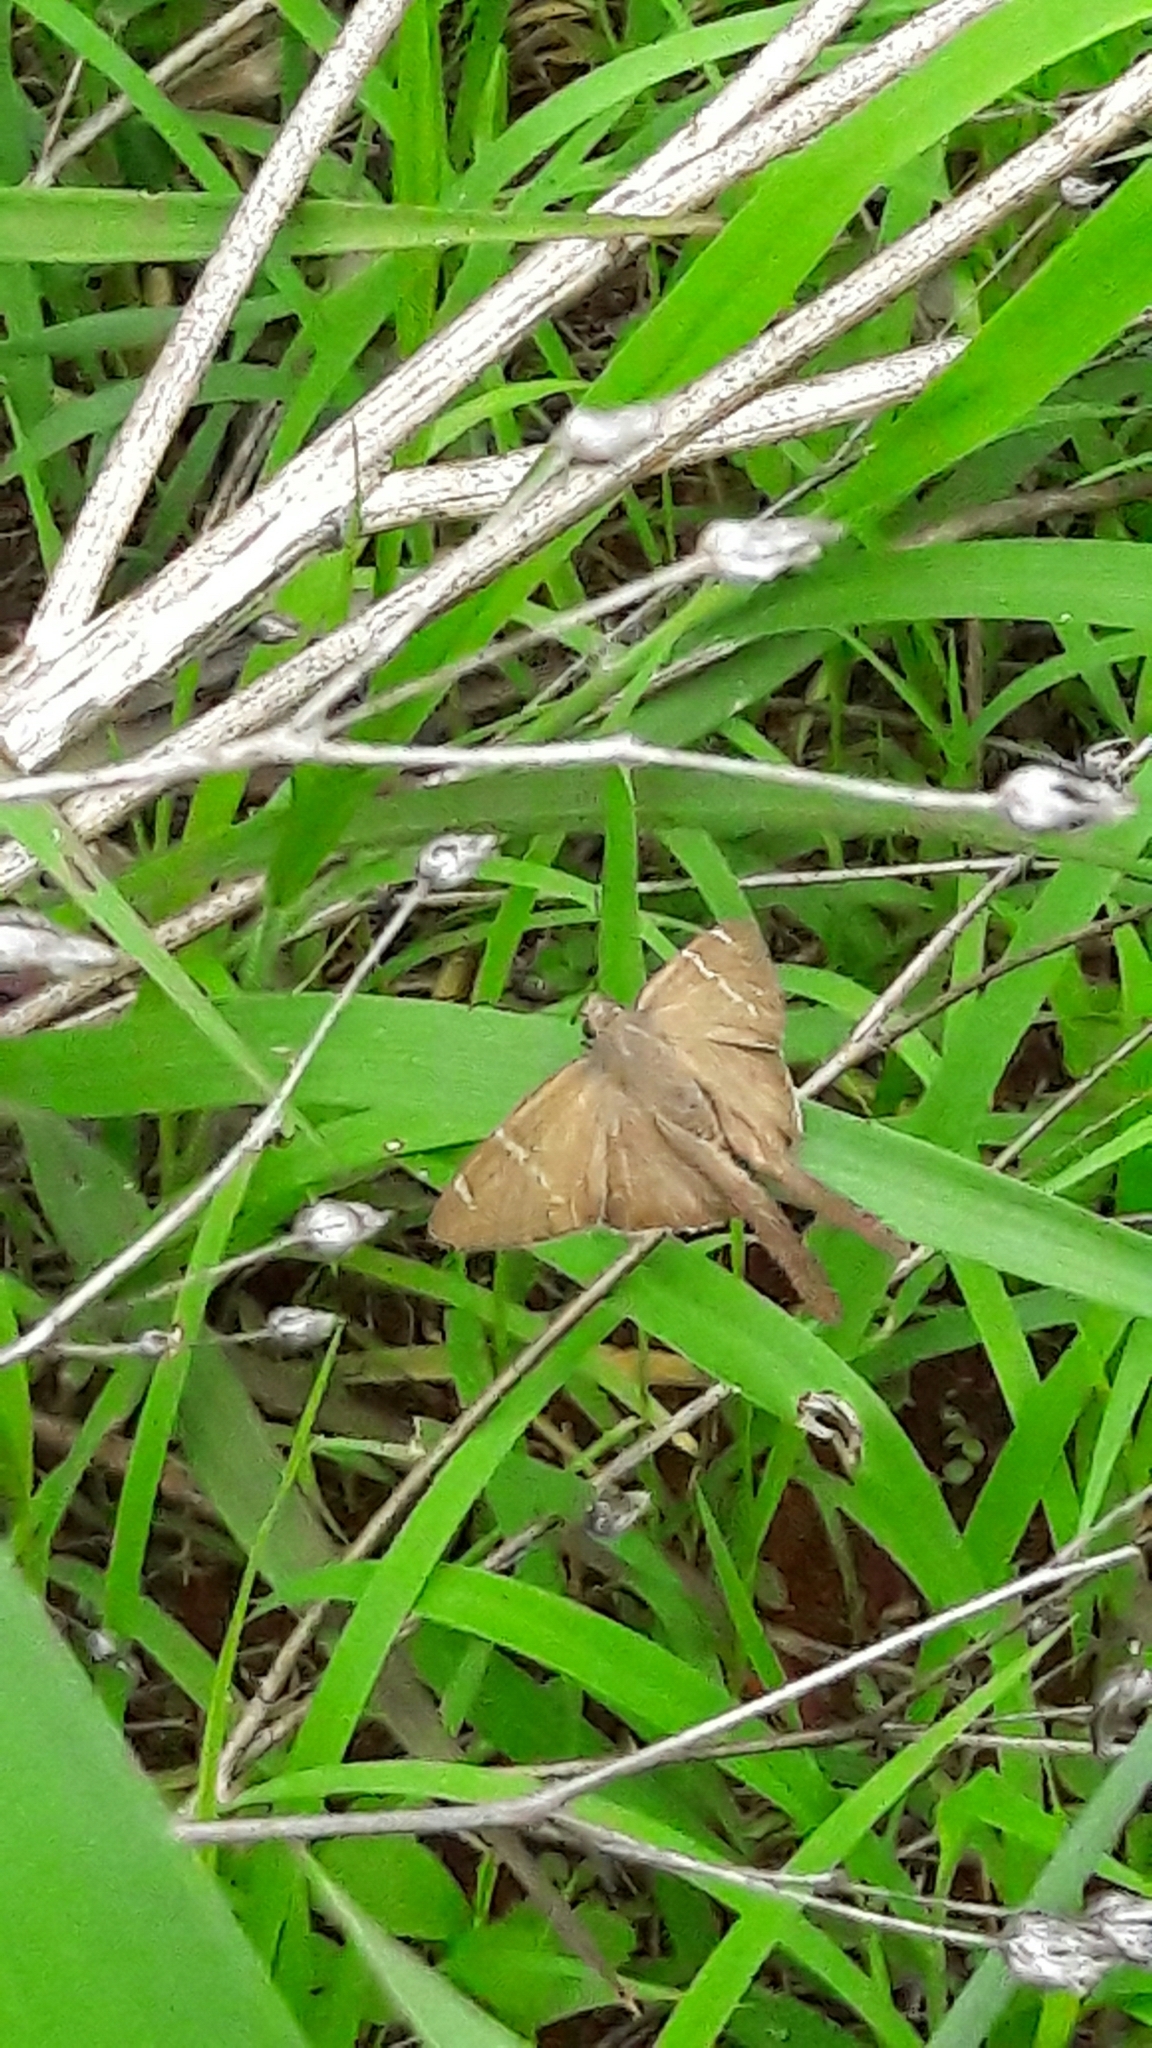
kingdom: Animalia
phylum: Arthropoda
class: Insecta
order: Lepidoptera
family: Hesperiidae
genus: Urbanus
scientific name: Urbanus teleus
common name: Teleus longtail
